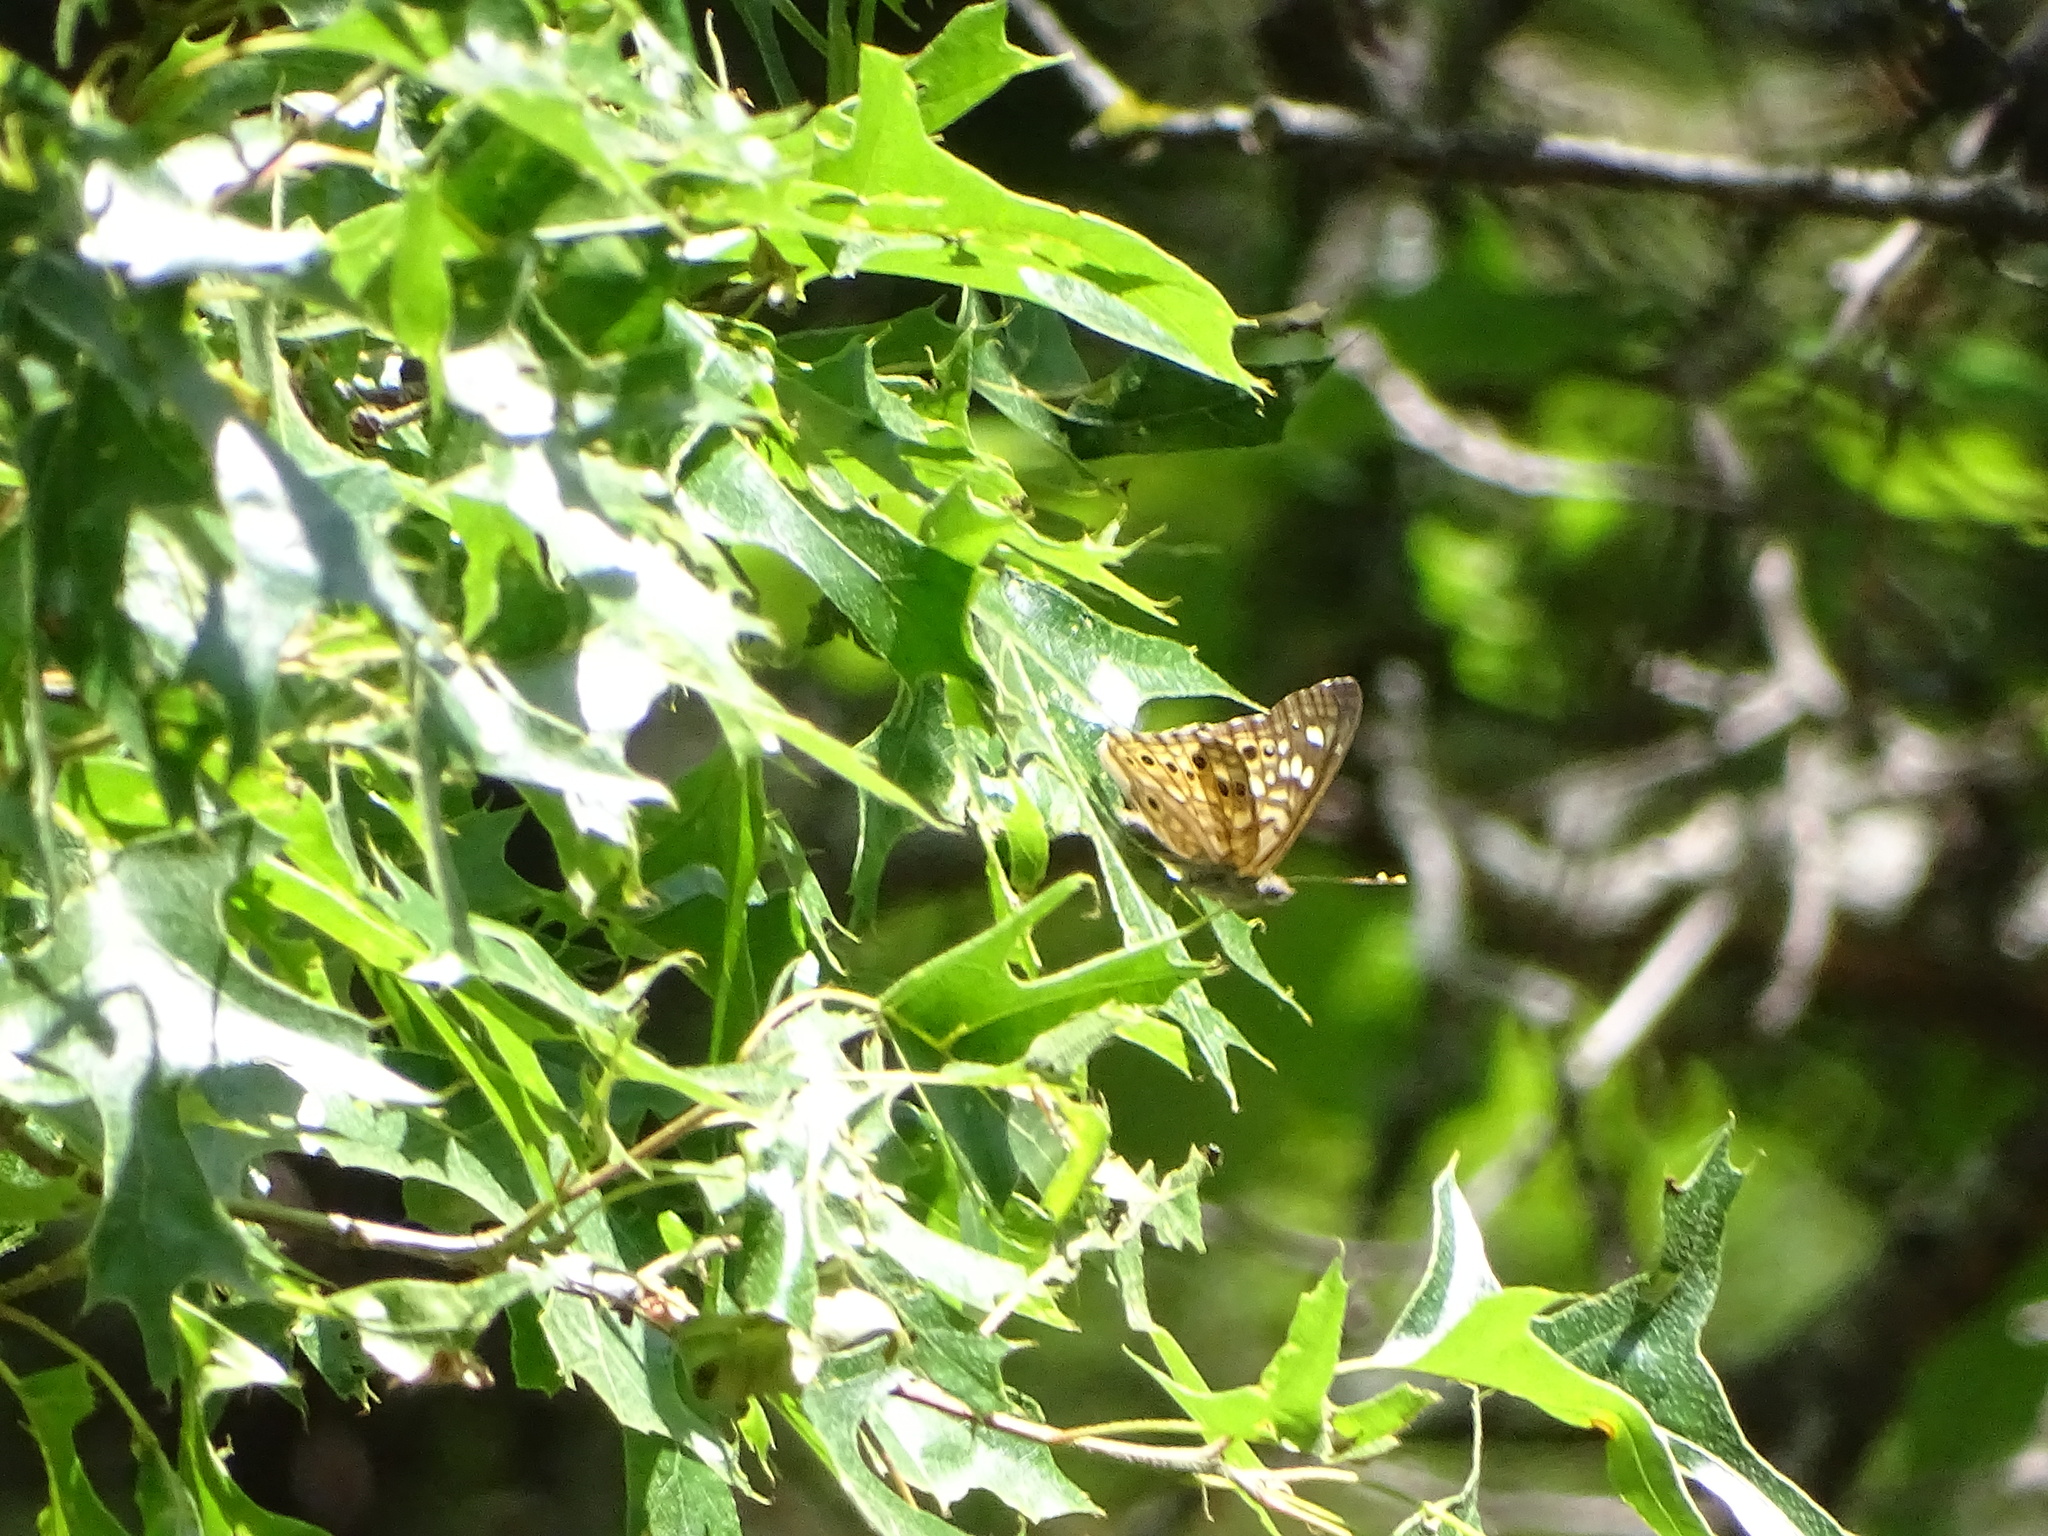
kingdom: Animalia
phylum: Arthropoda
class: Insecta
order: Lepidoptera
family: Nymphalidae
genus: Asterocampa
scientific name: Asterocampa celtis
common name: Hackberry emperor
